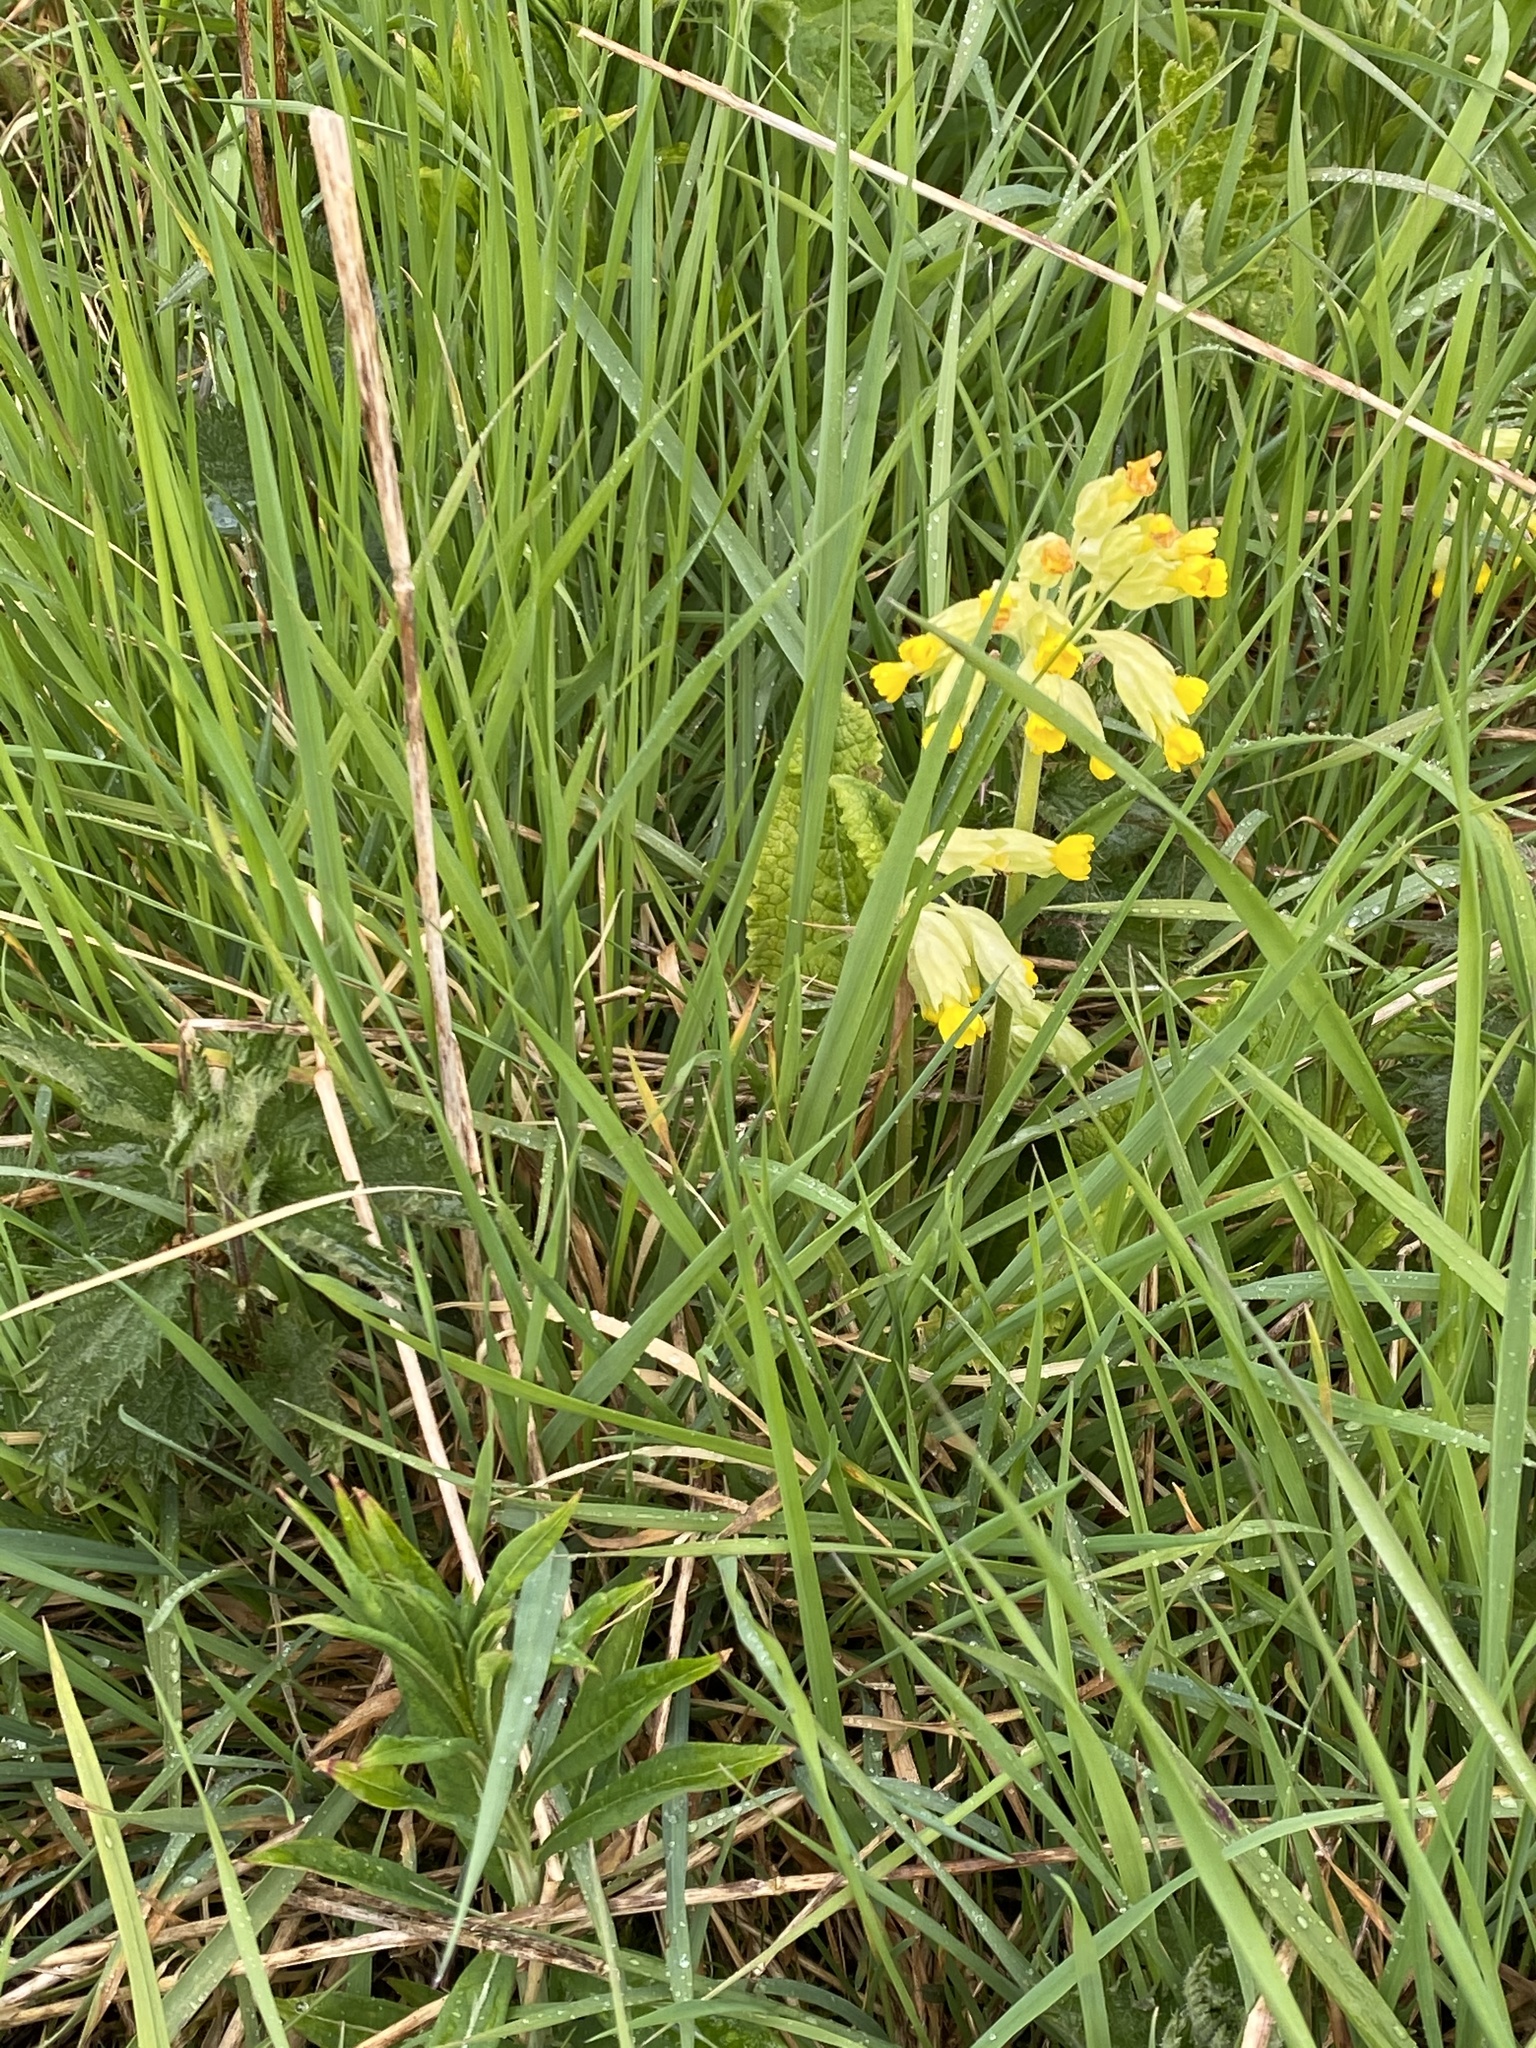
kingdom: Plantae
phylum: Tracheophyta
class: Magnoliopsida
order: Ericales
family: Primulaceae
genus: Primula
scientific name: Primula veris
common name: Cowslip
